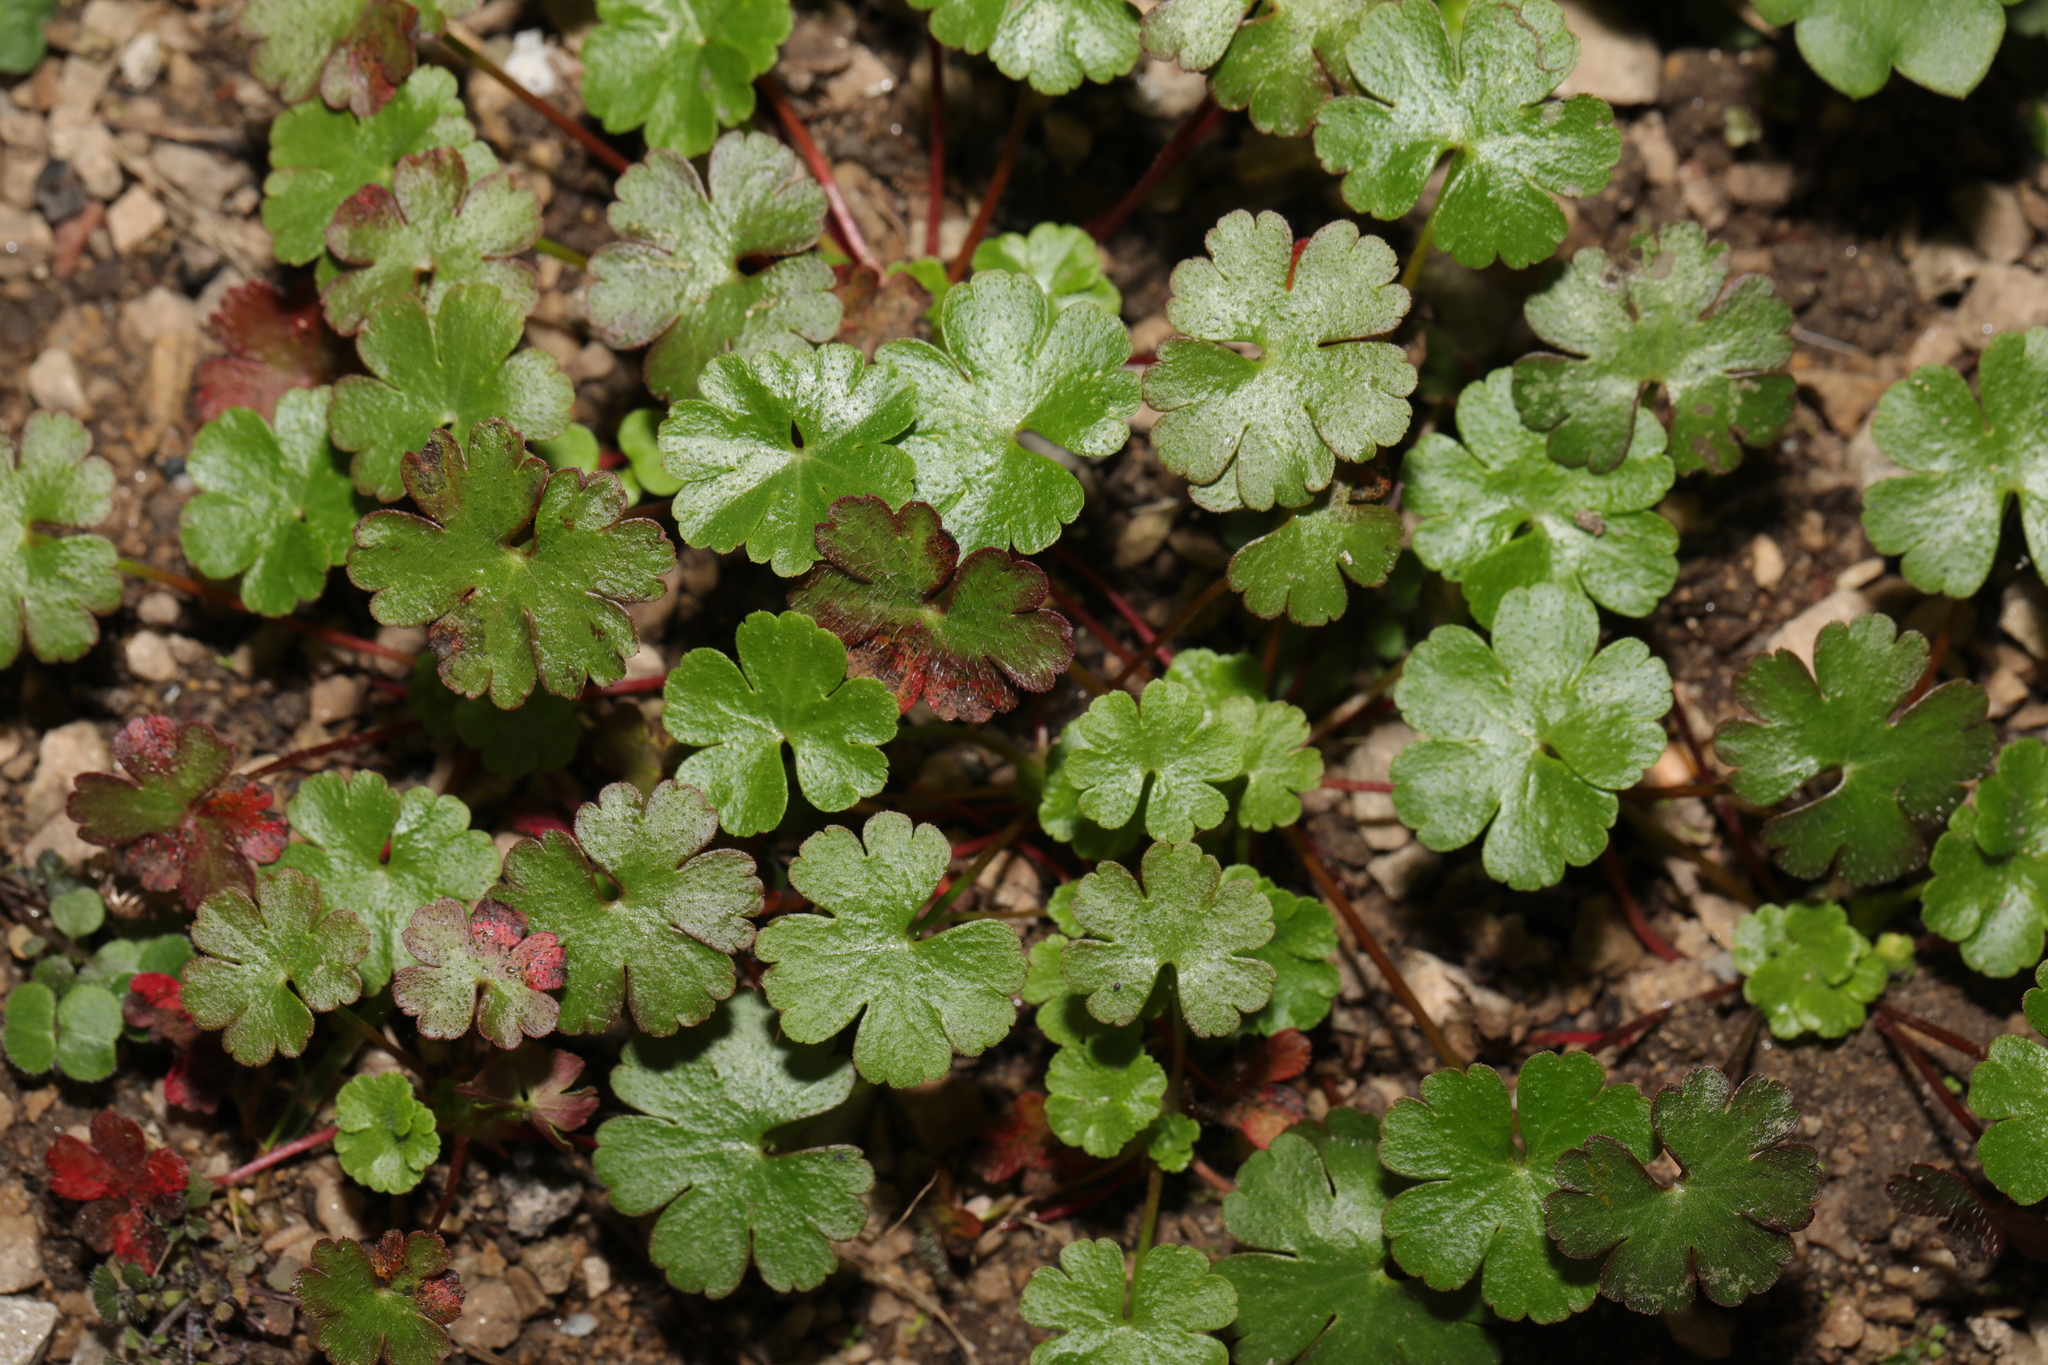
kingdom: Plantae
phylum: Tracheophyta
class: Magnoliopsida
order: Geraniales
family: Geraniaceae
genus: Geranium
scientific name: Geranium lucidum
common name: Shining crane's-bill
